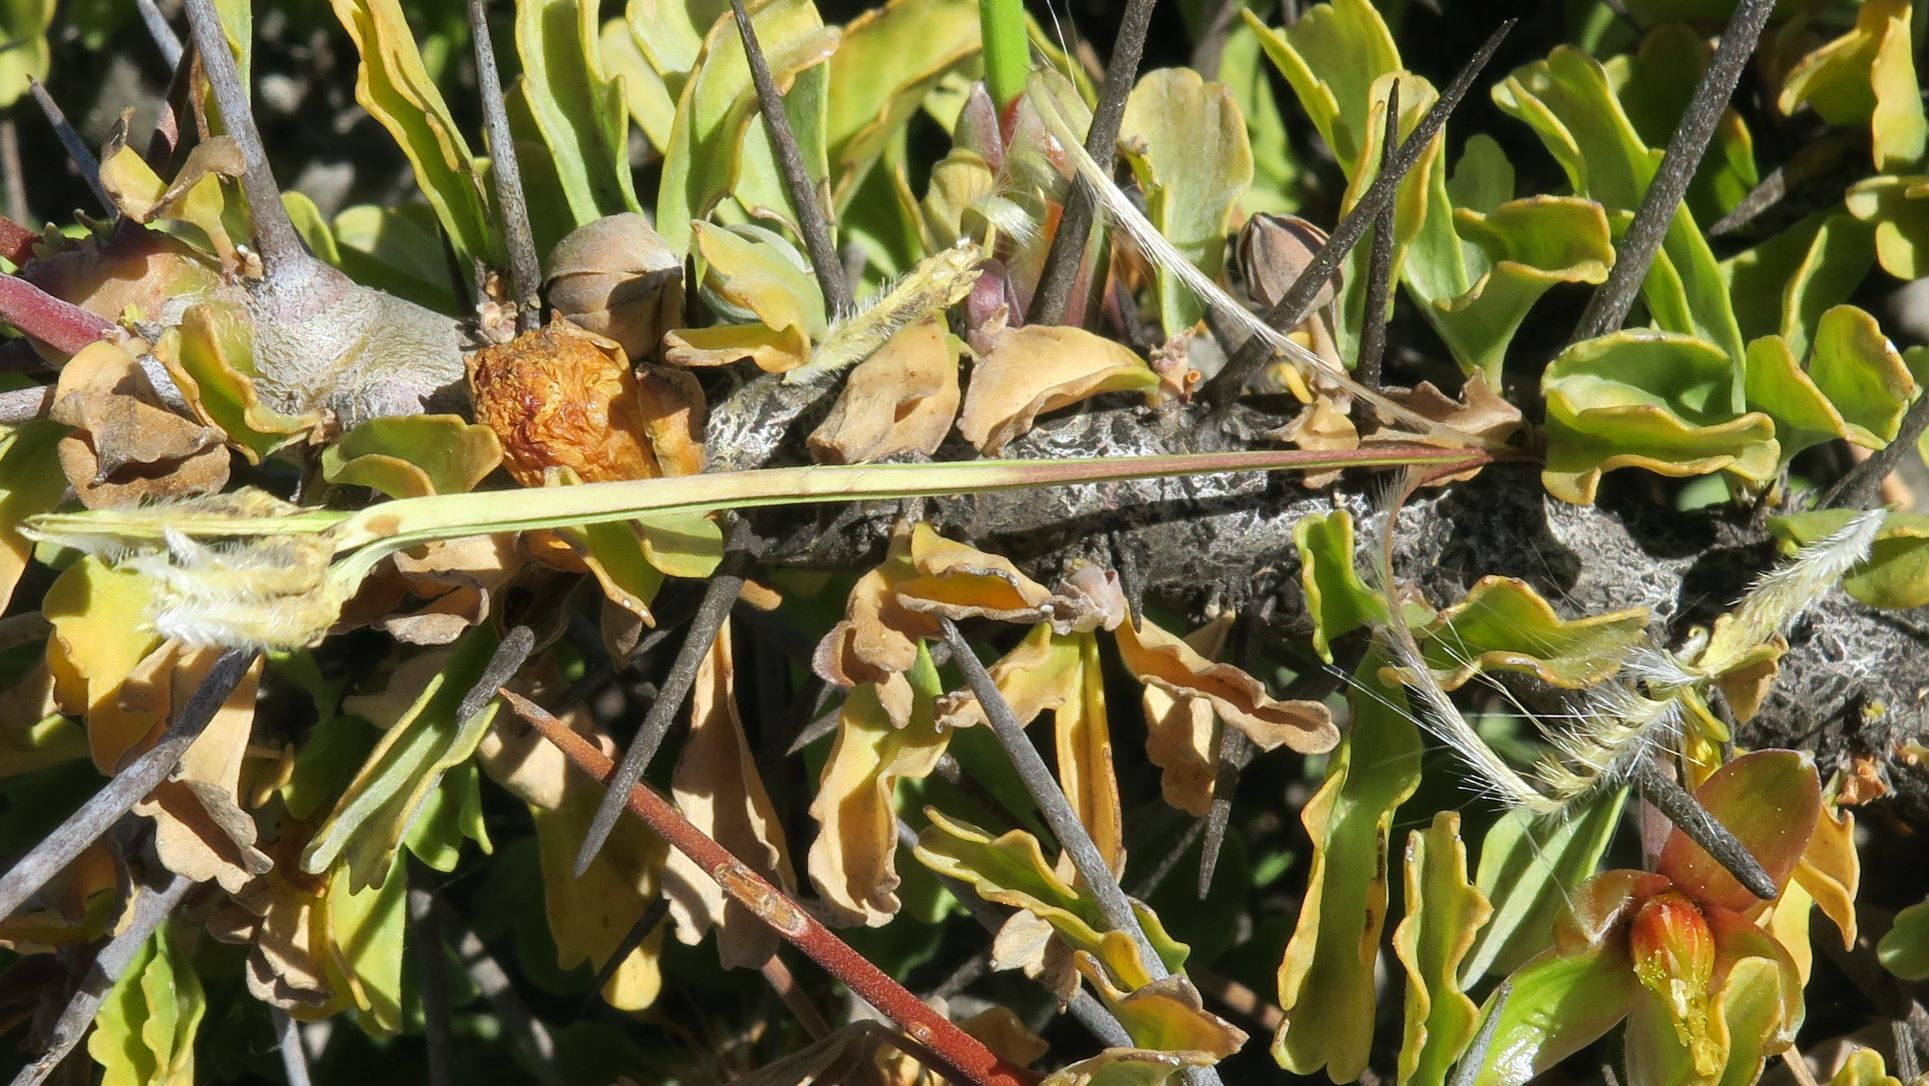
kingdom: Plantae
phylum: Tracheophyta
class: Magnoliopsida
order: Geraniales
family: Geraniaceae
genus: Monsonia
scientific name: Monsonia ciliata
